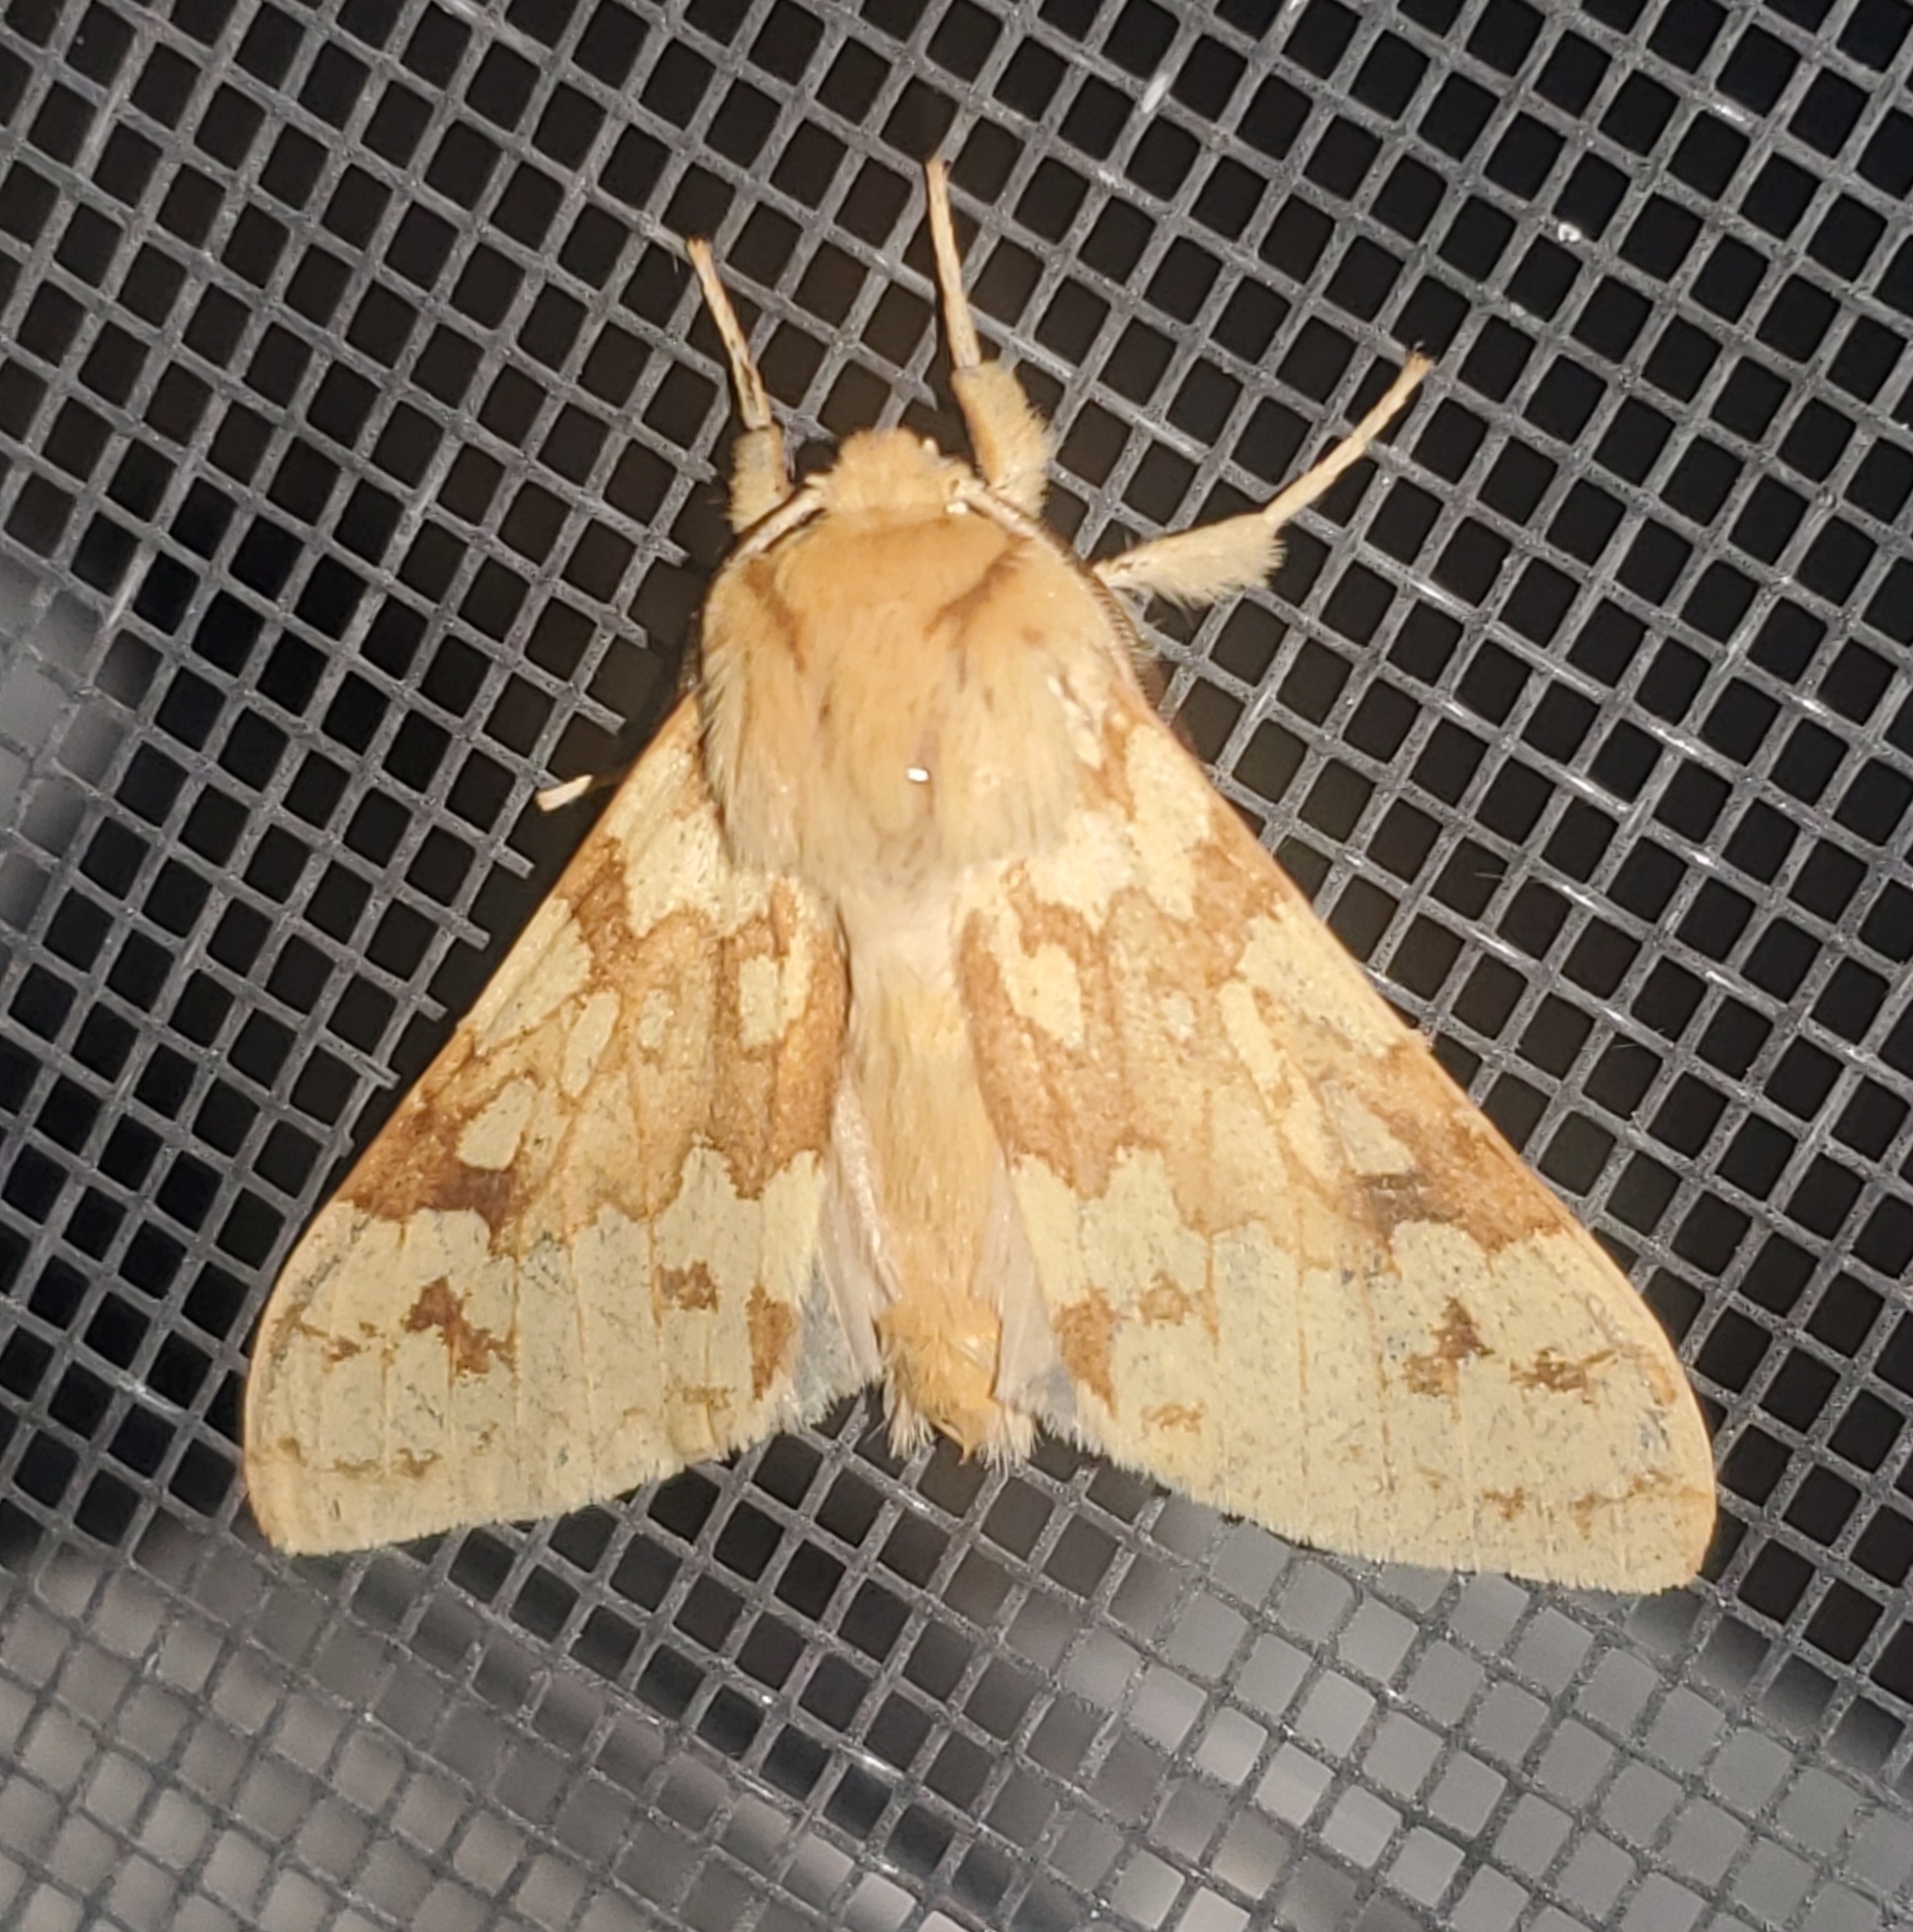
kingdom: Animalia
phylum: Arthropoda
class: Insecta
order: Lepidoptera
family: Erebidae
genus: Lophocampa
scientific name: Lophocampa maculata
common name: Spotted tussock moth
